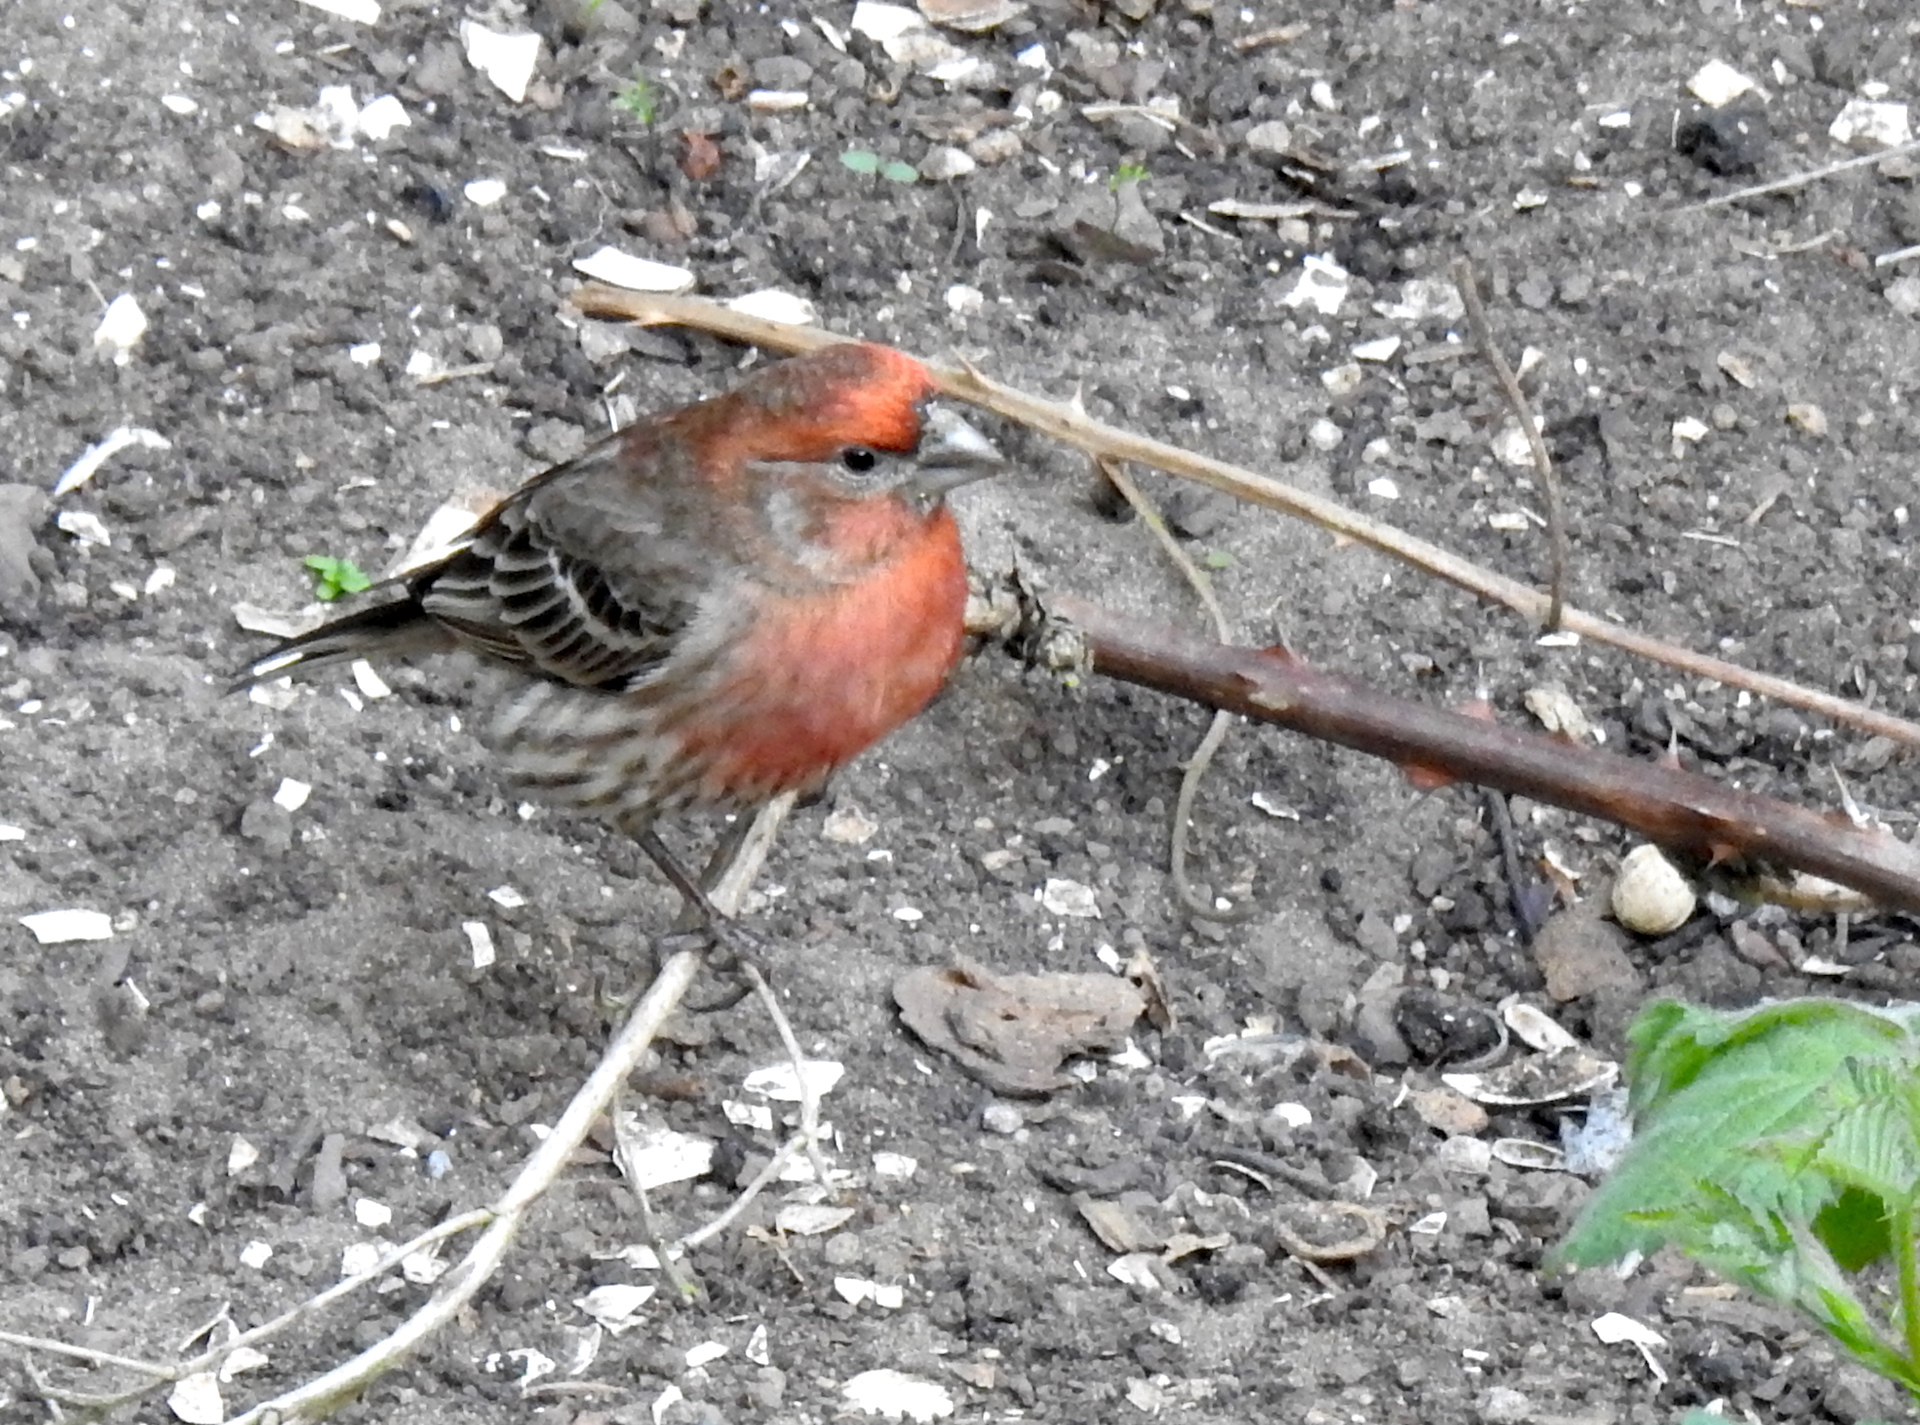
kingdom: Animalia
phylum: Chordata
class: Aves
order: Passeriformes
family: Fringillidae
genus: Haemorhous
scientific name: Haemorhous mexicanus
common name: House finch
